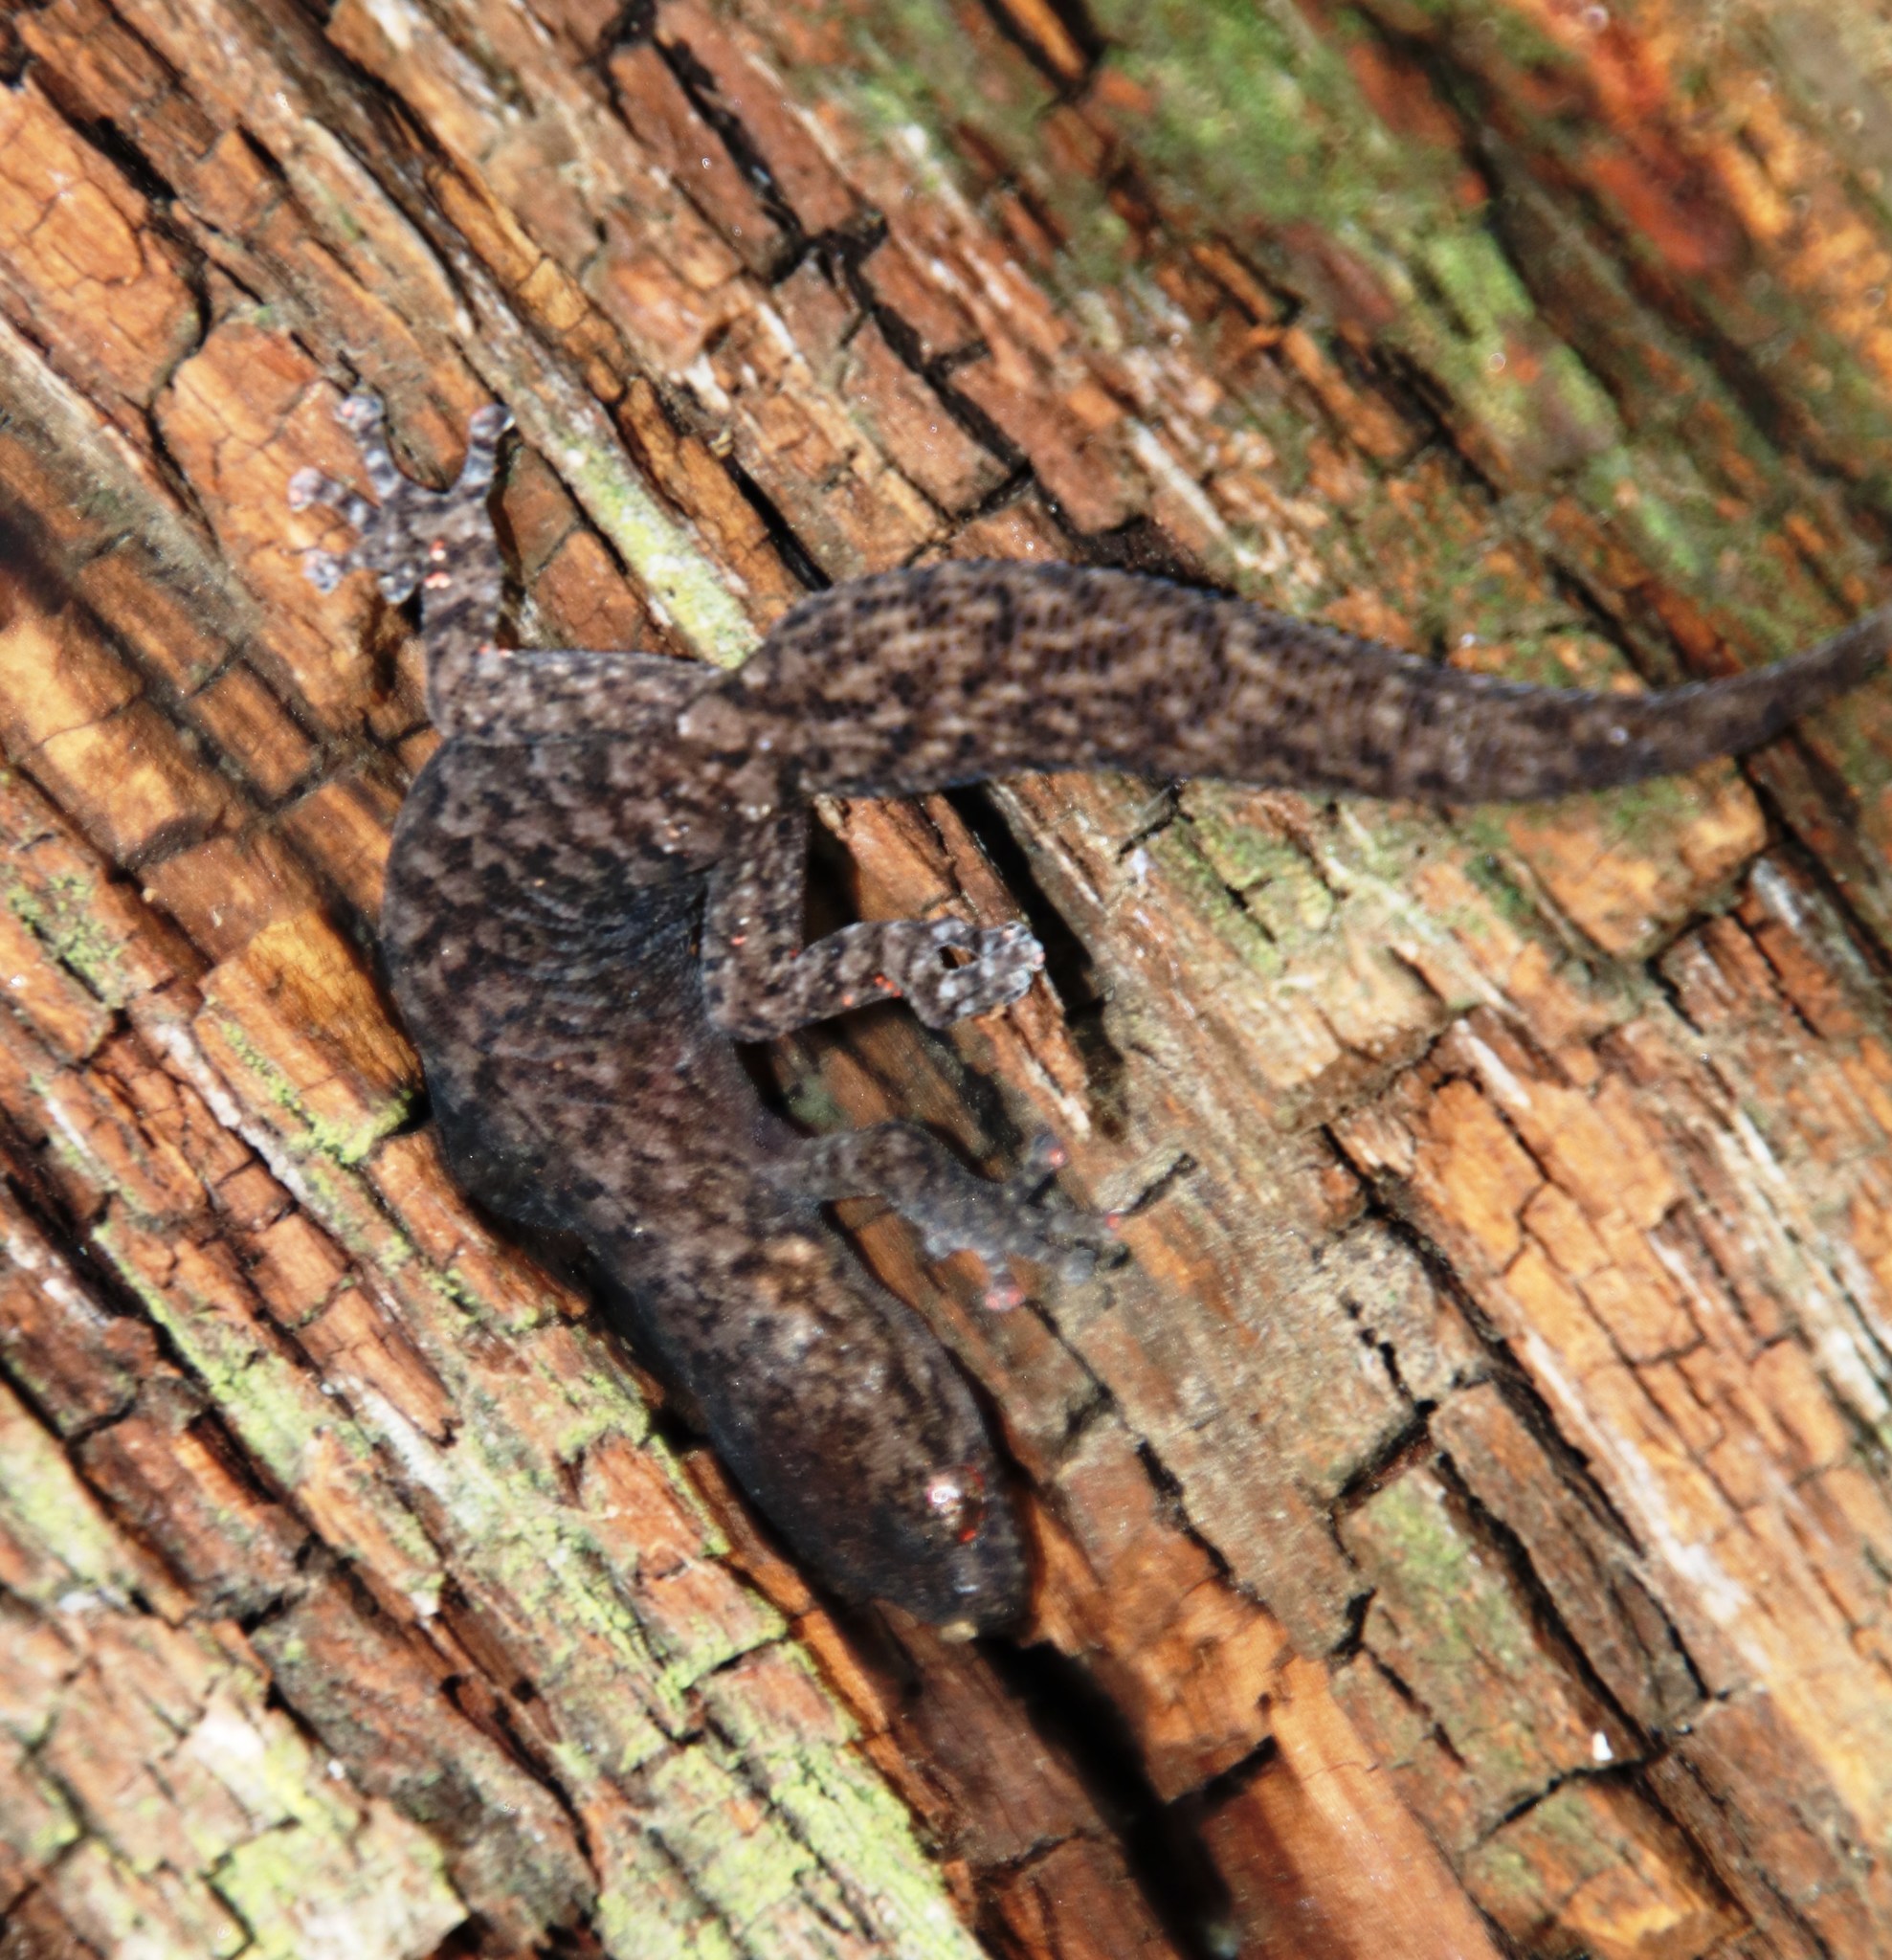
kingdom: Animalia
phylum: Chordata
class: Squamata
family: Gekkonidae
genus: Afrogecko
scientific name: Afrogecko porphyreus
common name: Marbled leaf-toed gecko
